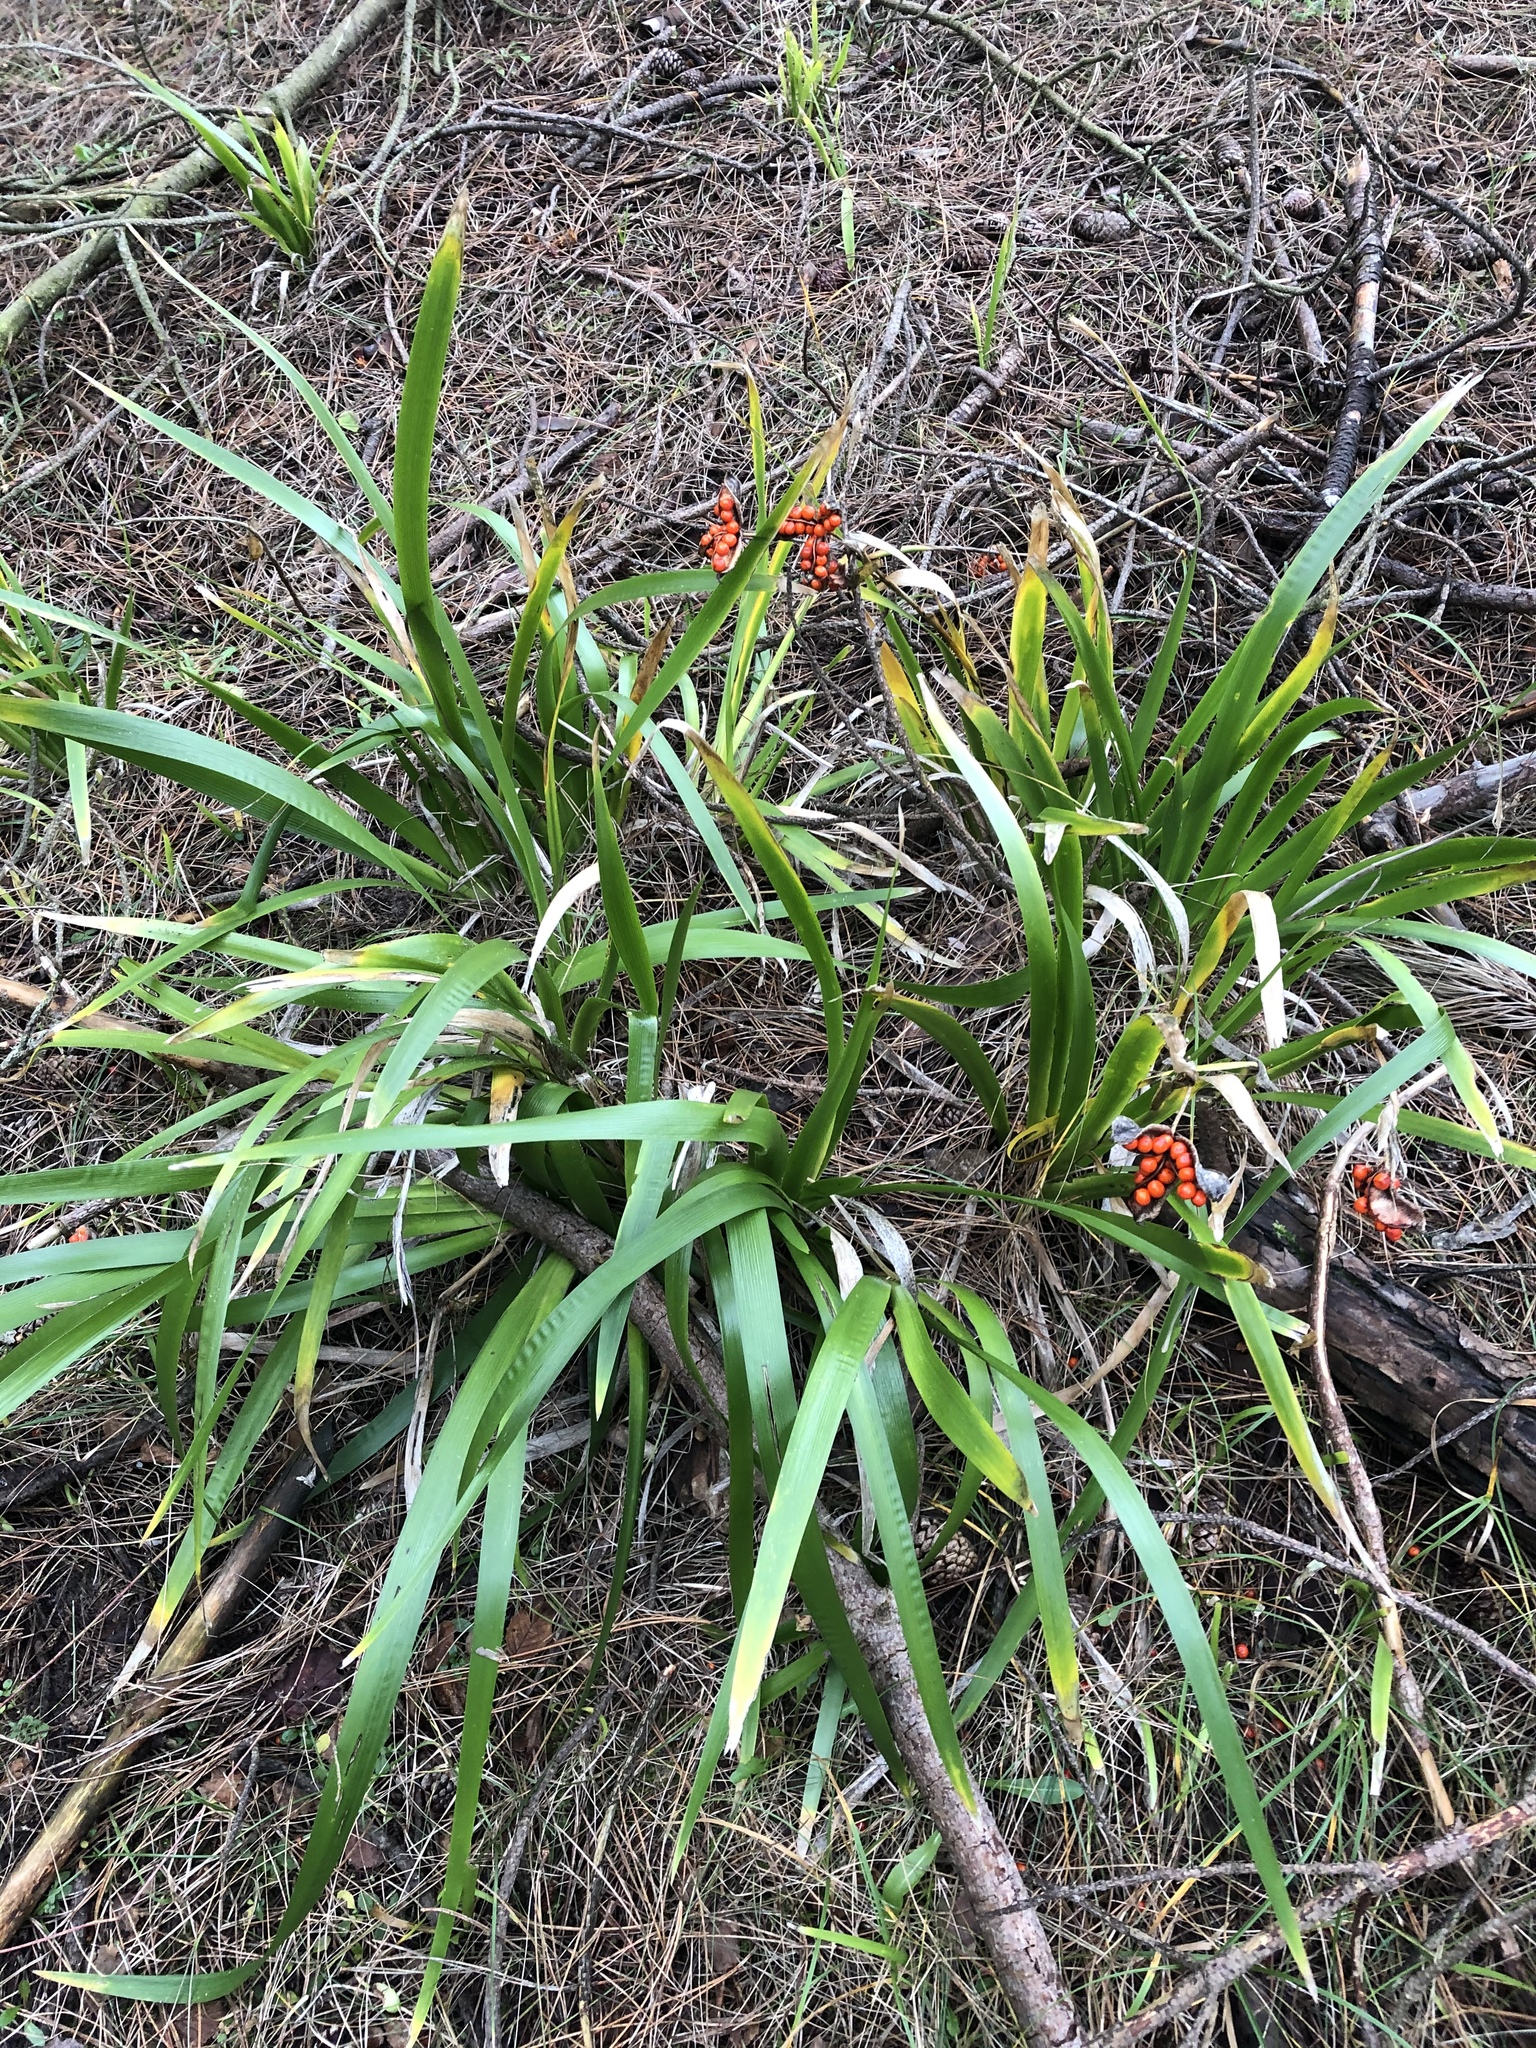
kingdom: Plantae
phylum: Tracheophyta
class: Liliopsida
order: Asparagales
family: Iridaceae
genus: Iris
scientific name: Iris foetidissima
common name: Stinking iris
